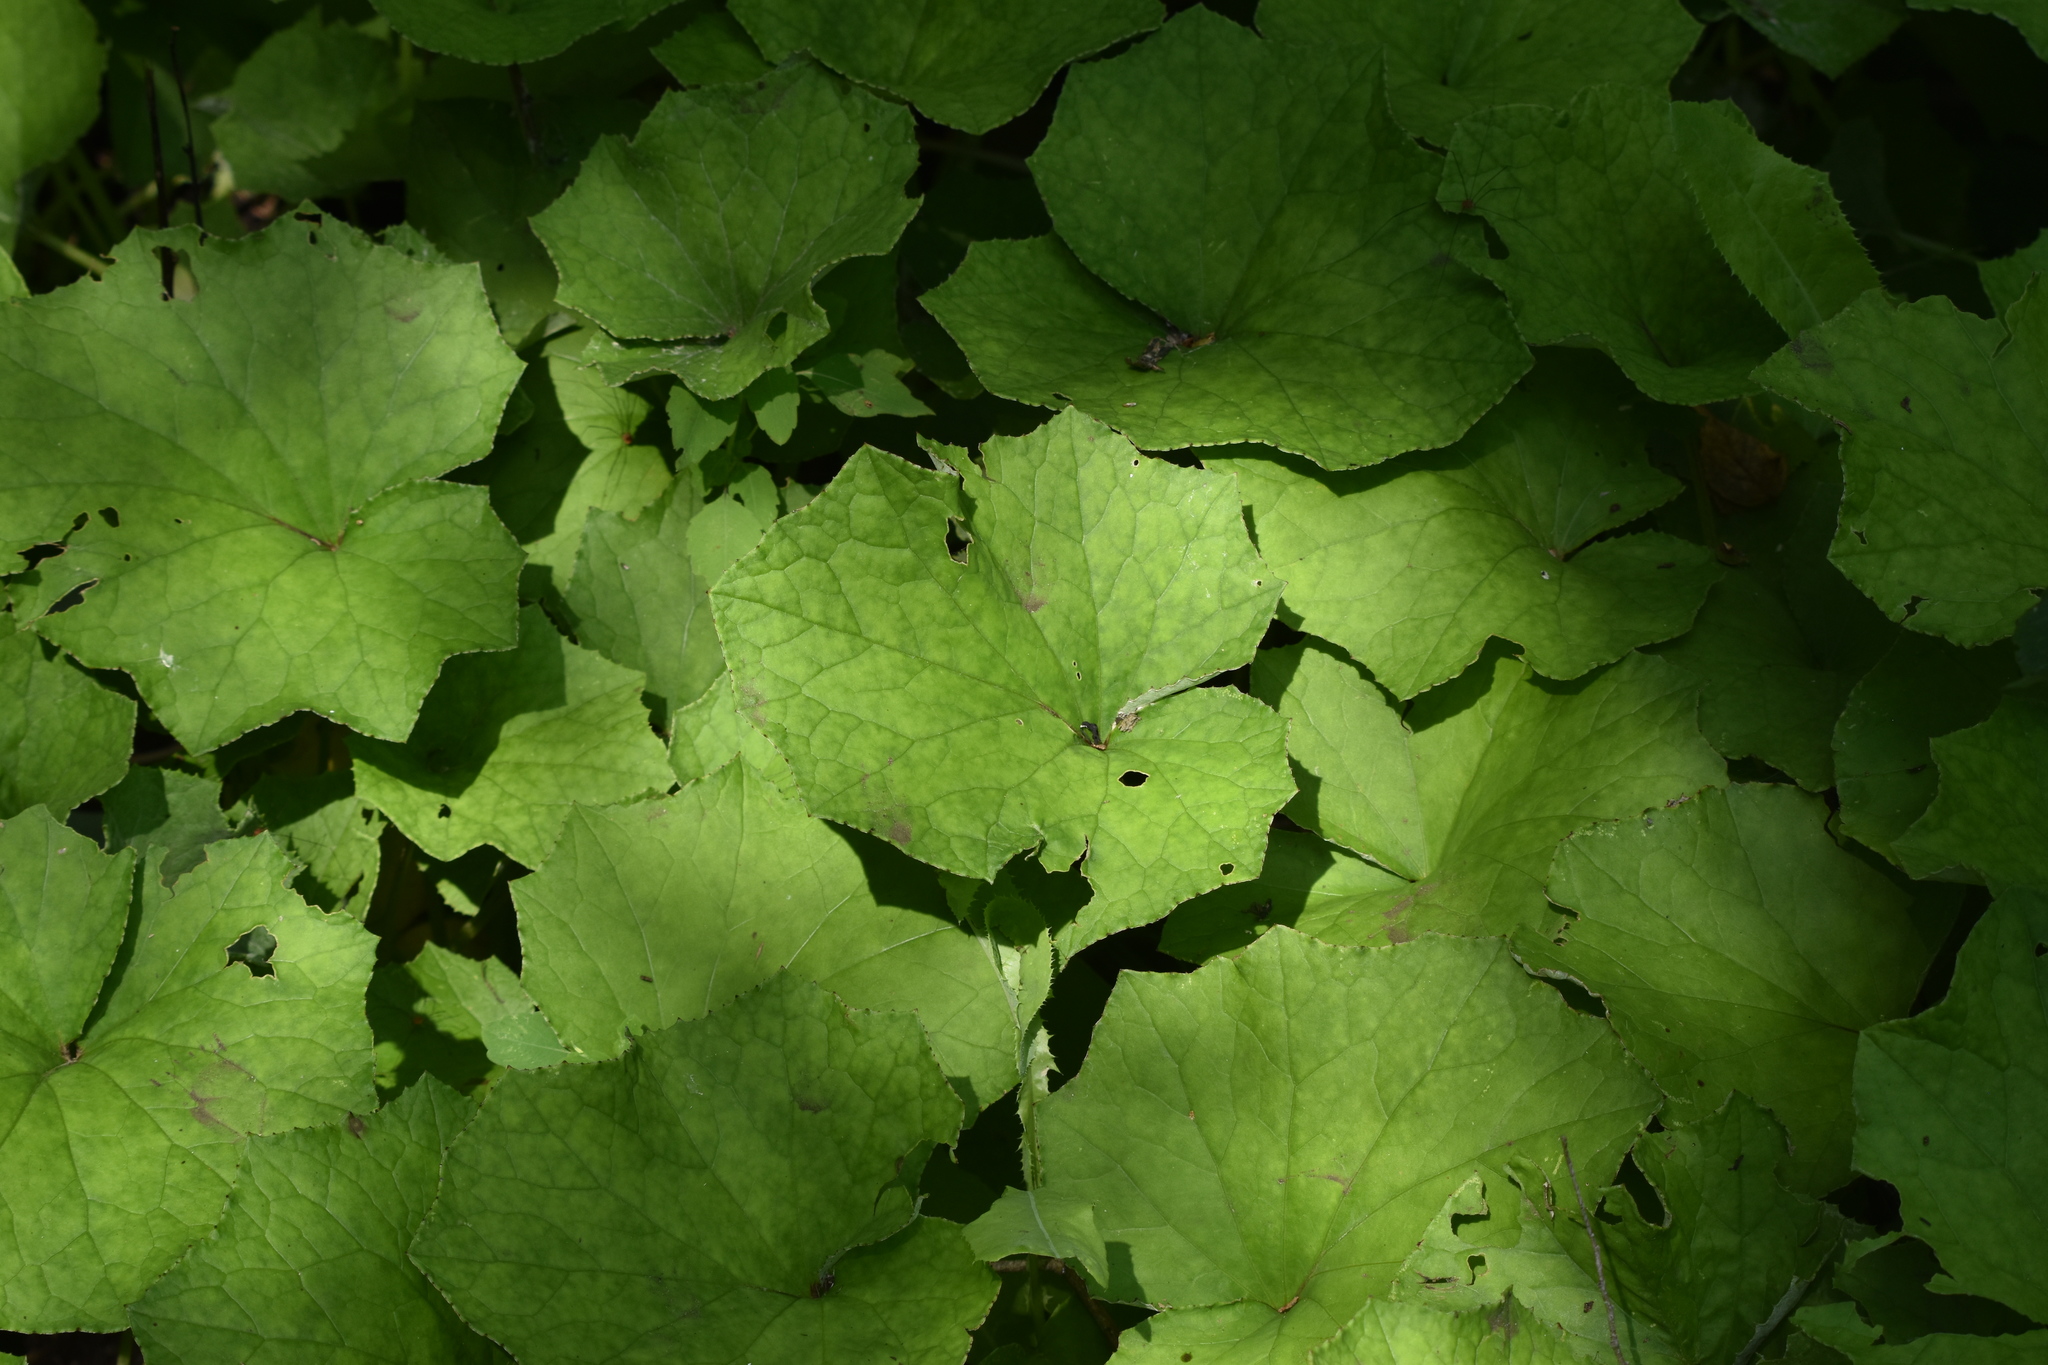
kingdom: Plantae
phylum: Tracheophyta
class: Magnoliopsida
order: Asterales
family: Asteraceae
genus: Tussilago
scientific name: Tussilago farfara
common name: Coltsfoot
